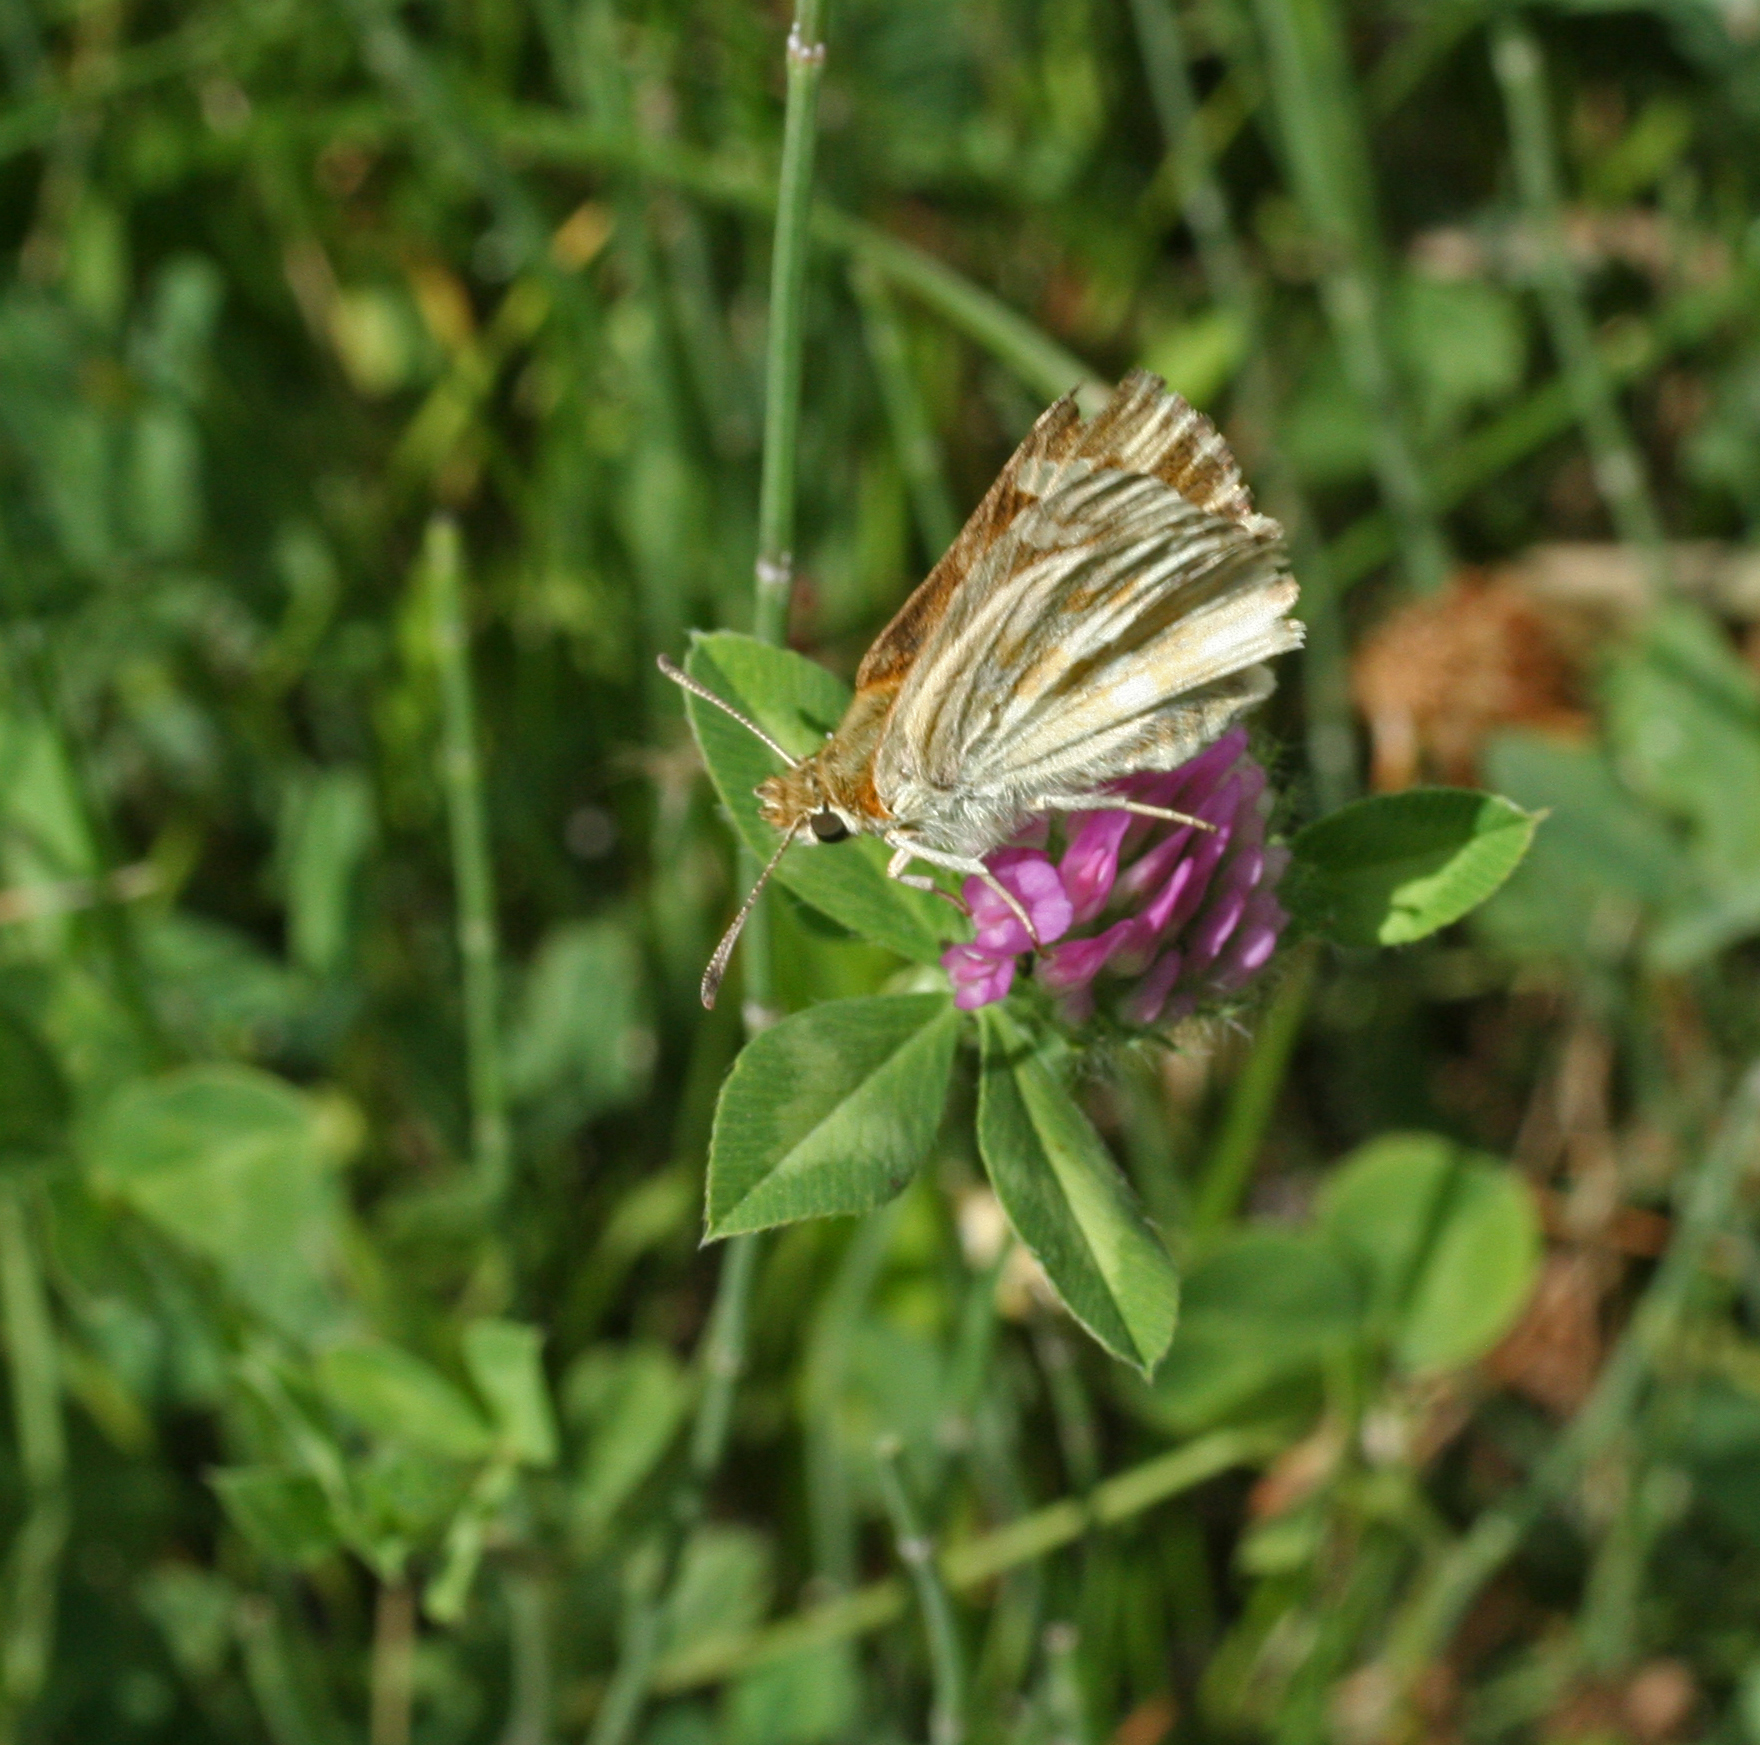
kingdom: Plantae
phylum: Tracheophyta
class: Magnoliopsida
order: Fabales
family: Fabaceae
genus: Trifolium
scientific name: Trifolium pratense
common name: Red clover
